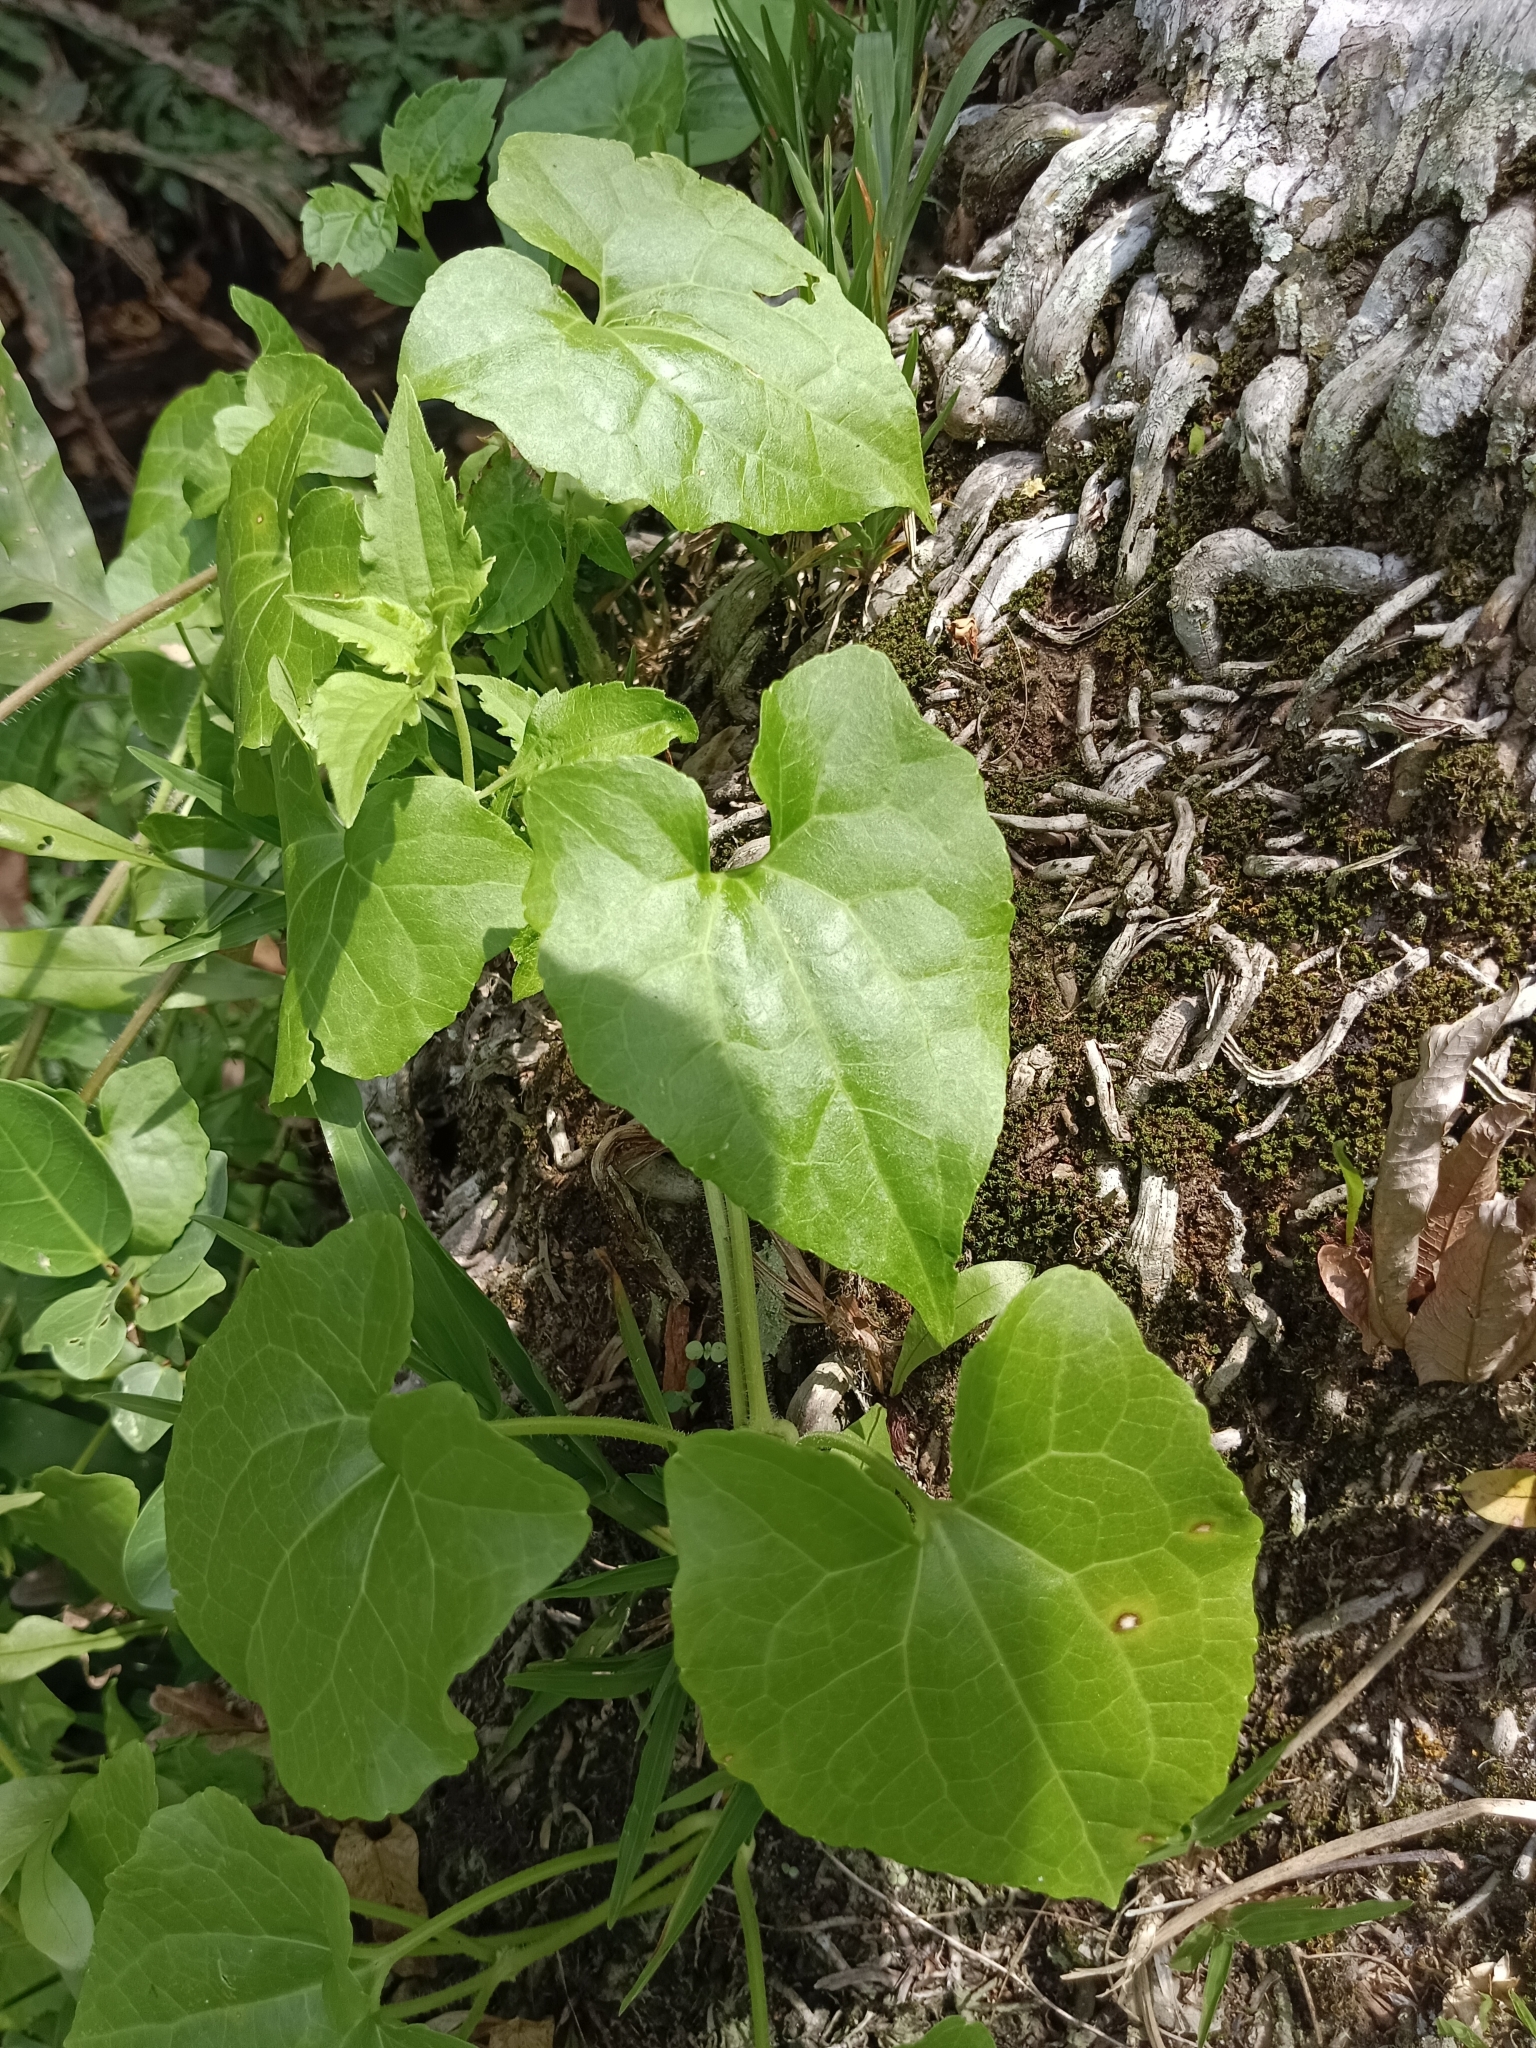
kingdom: Plantae
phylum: Tracheophyta
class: Magnoliopsida
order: Asterales
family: Asteraceae
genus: Mikania
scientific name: Mikania micrantha
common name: Mile-a-minute
